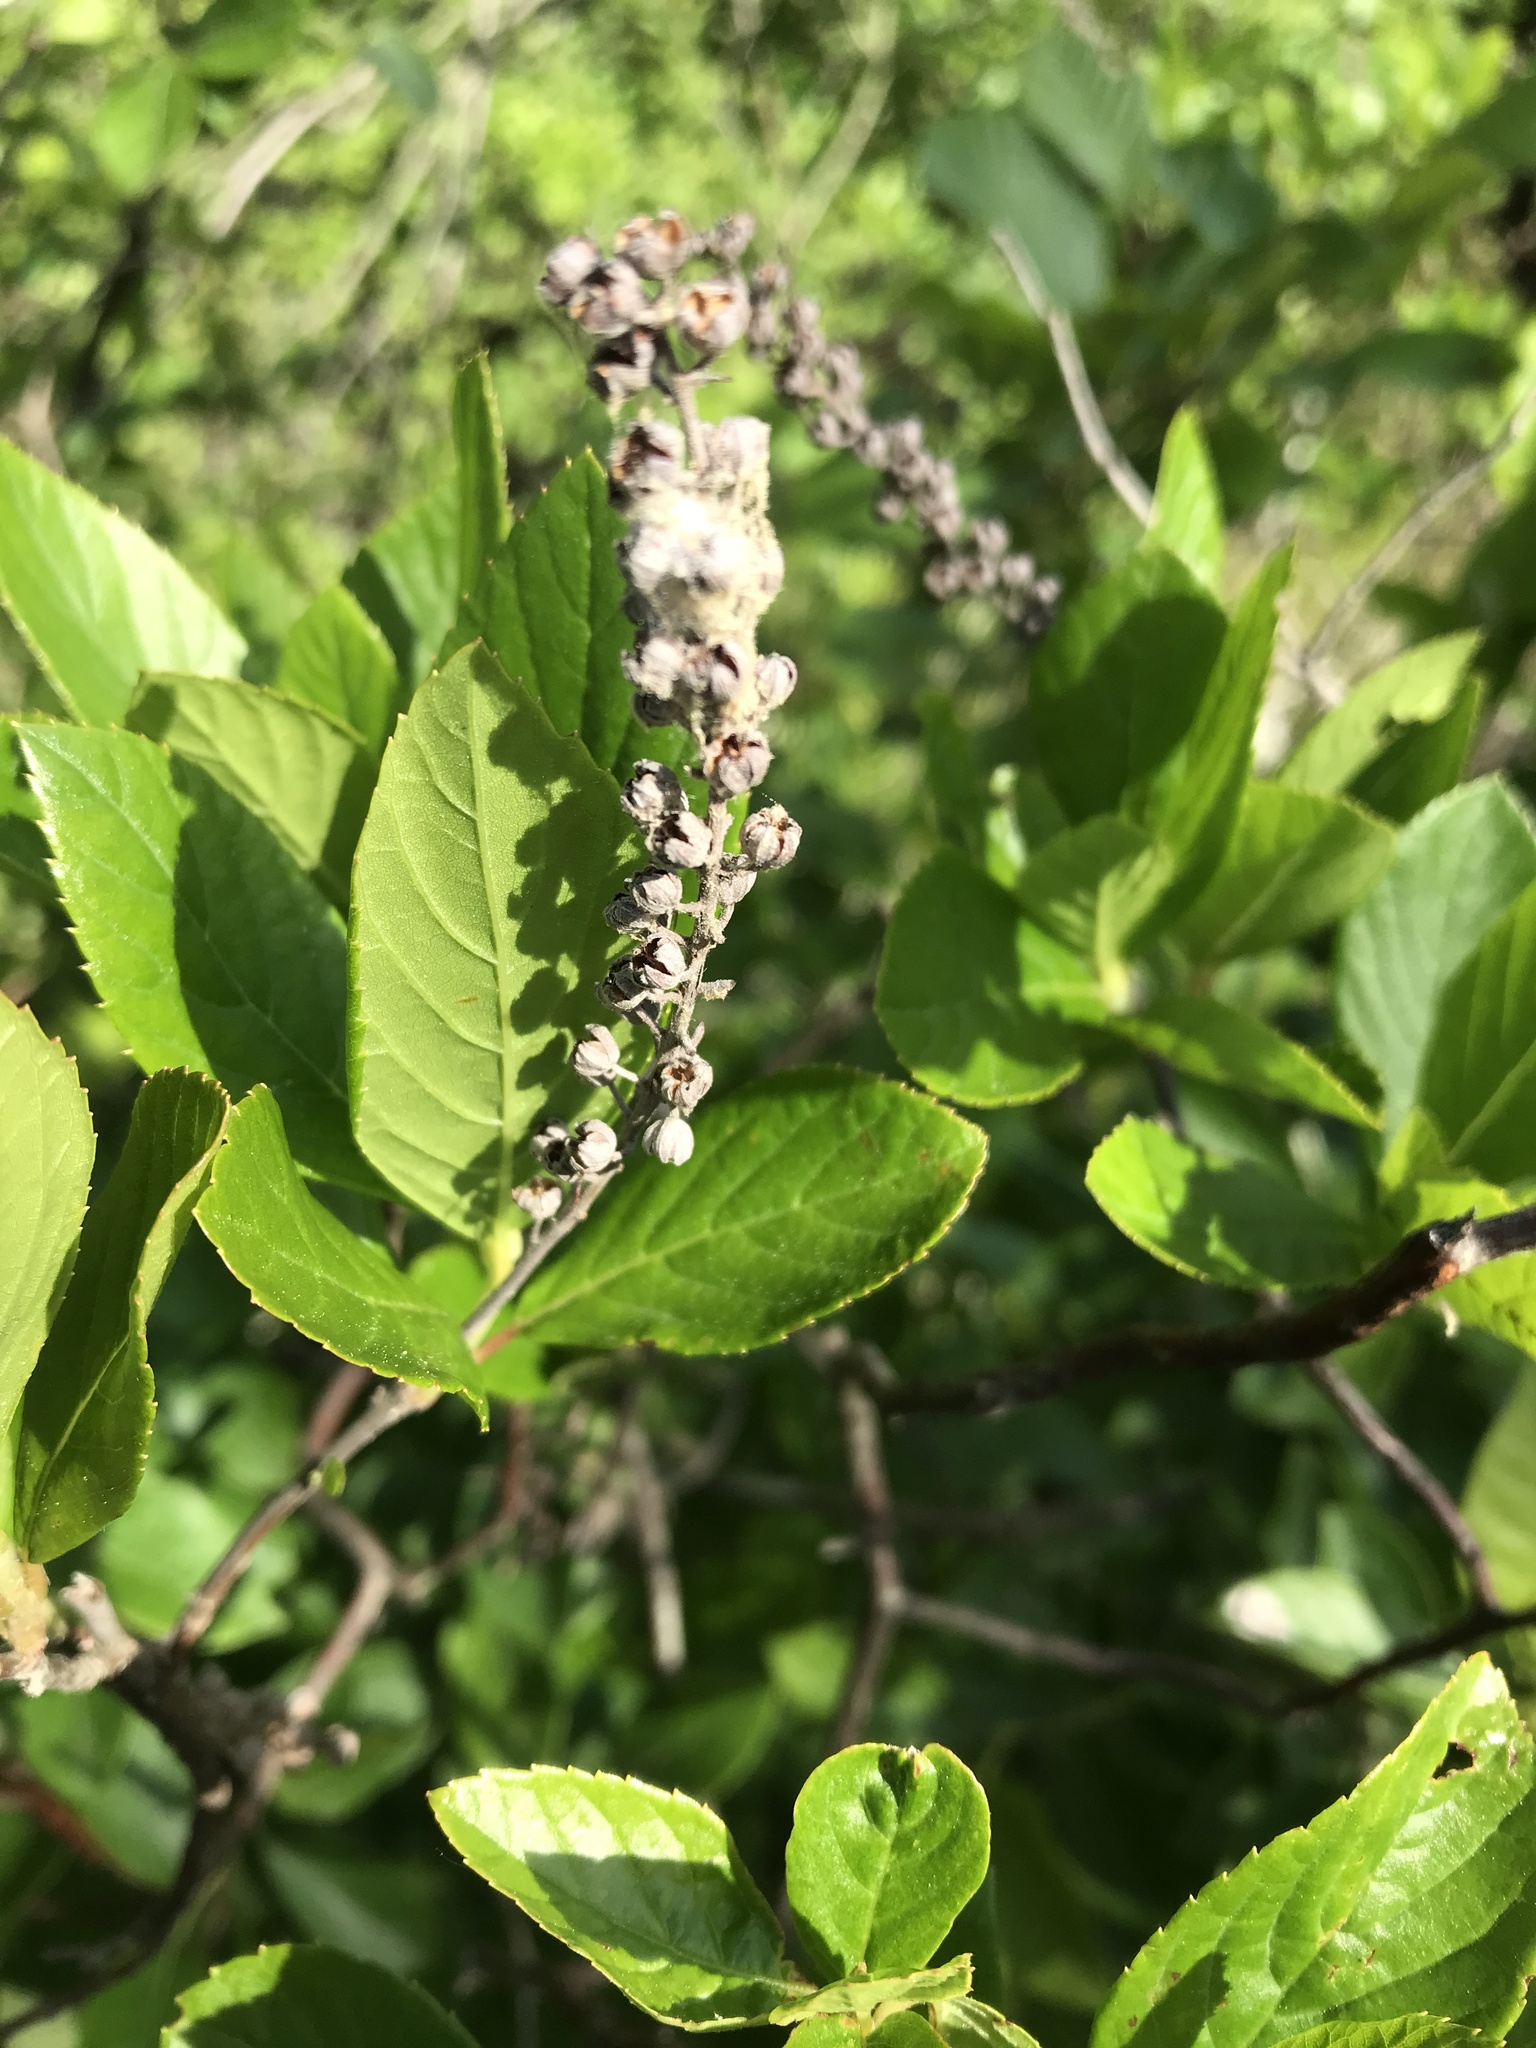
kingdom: Plantae
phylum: Tracheophyta
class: Magnoliopsida
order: Ericales
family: Clethraceae
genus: Clethra
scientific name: Clethra alnifolia
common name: Sweet pepperbush
